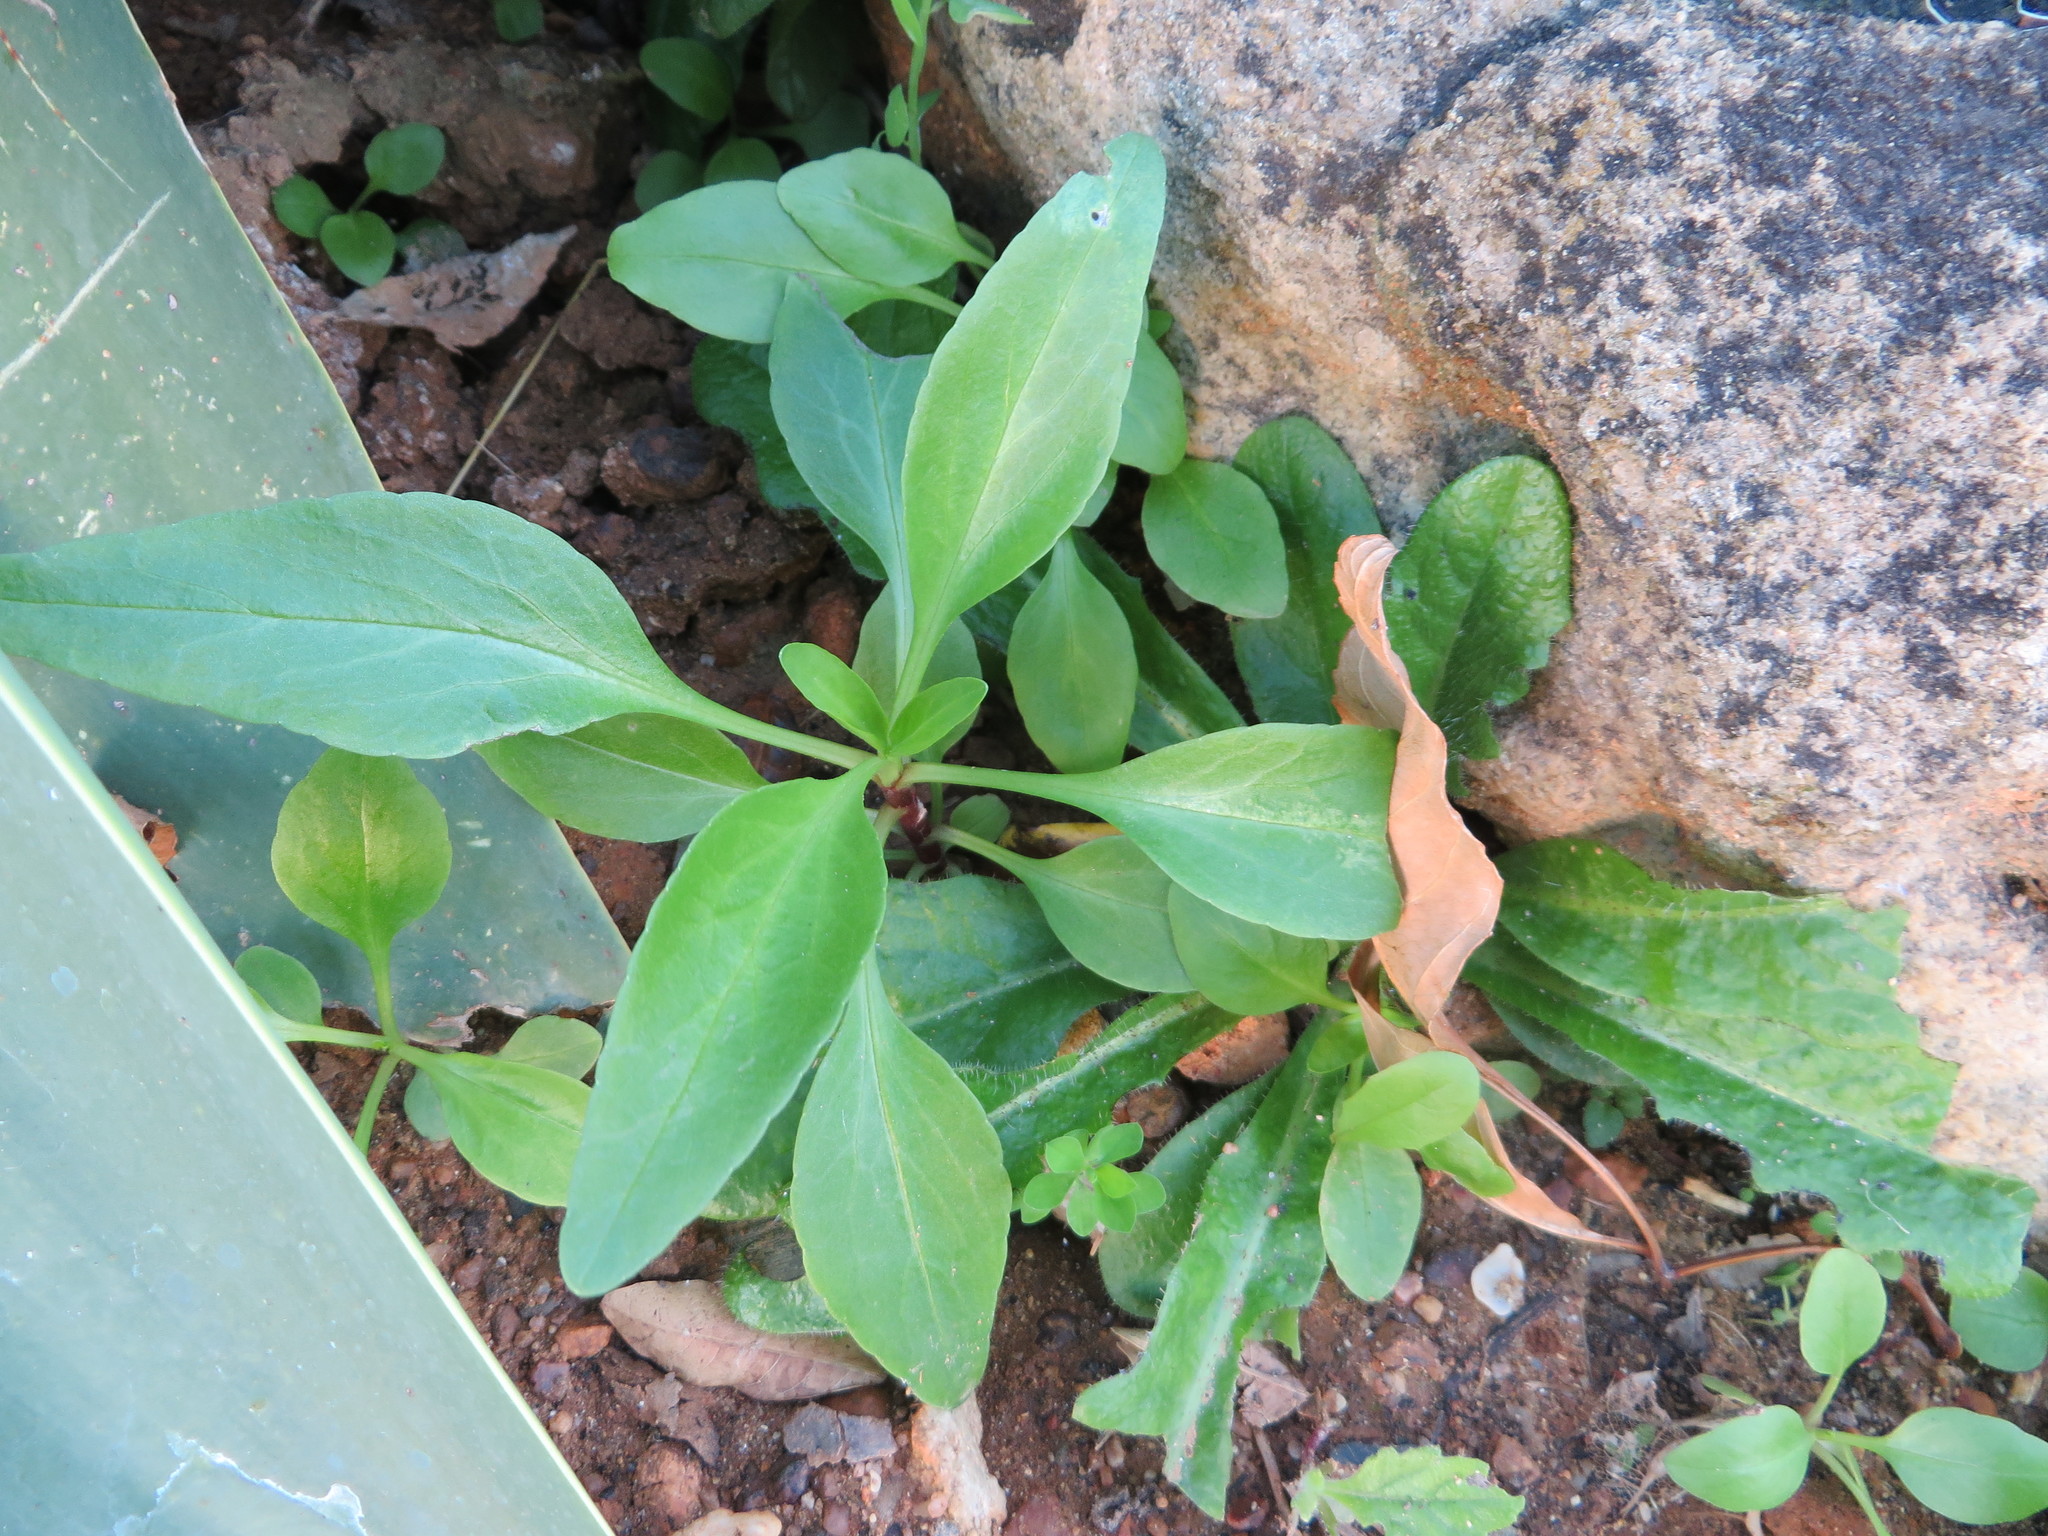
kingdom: Plantae
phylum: Tracheophyta
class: Magnoliopsida
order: Dipsacales
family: Caprifoliaceae
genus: Centranthus
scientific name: Centranthus ruber
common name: Red valerian
